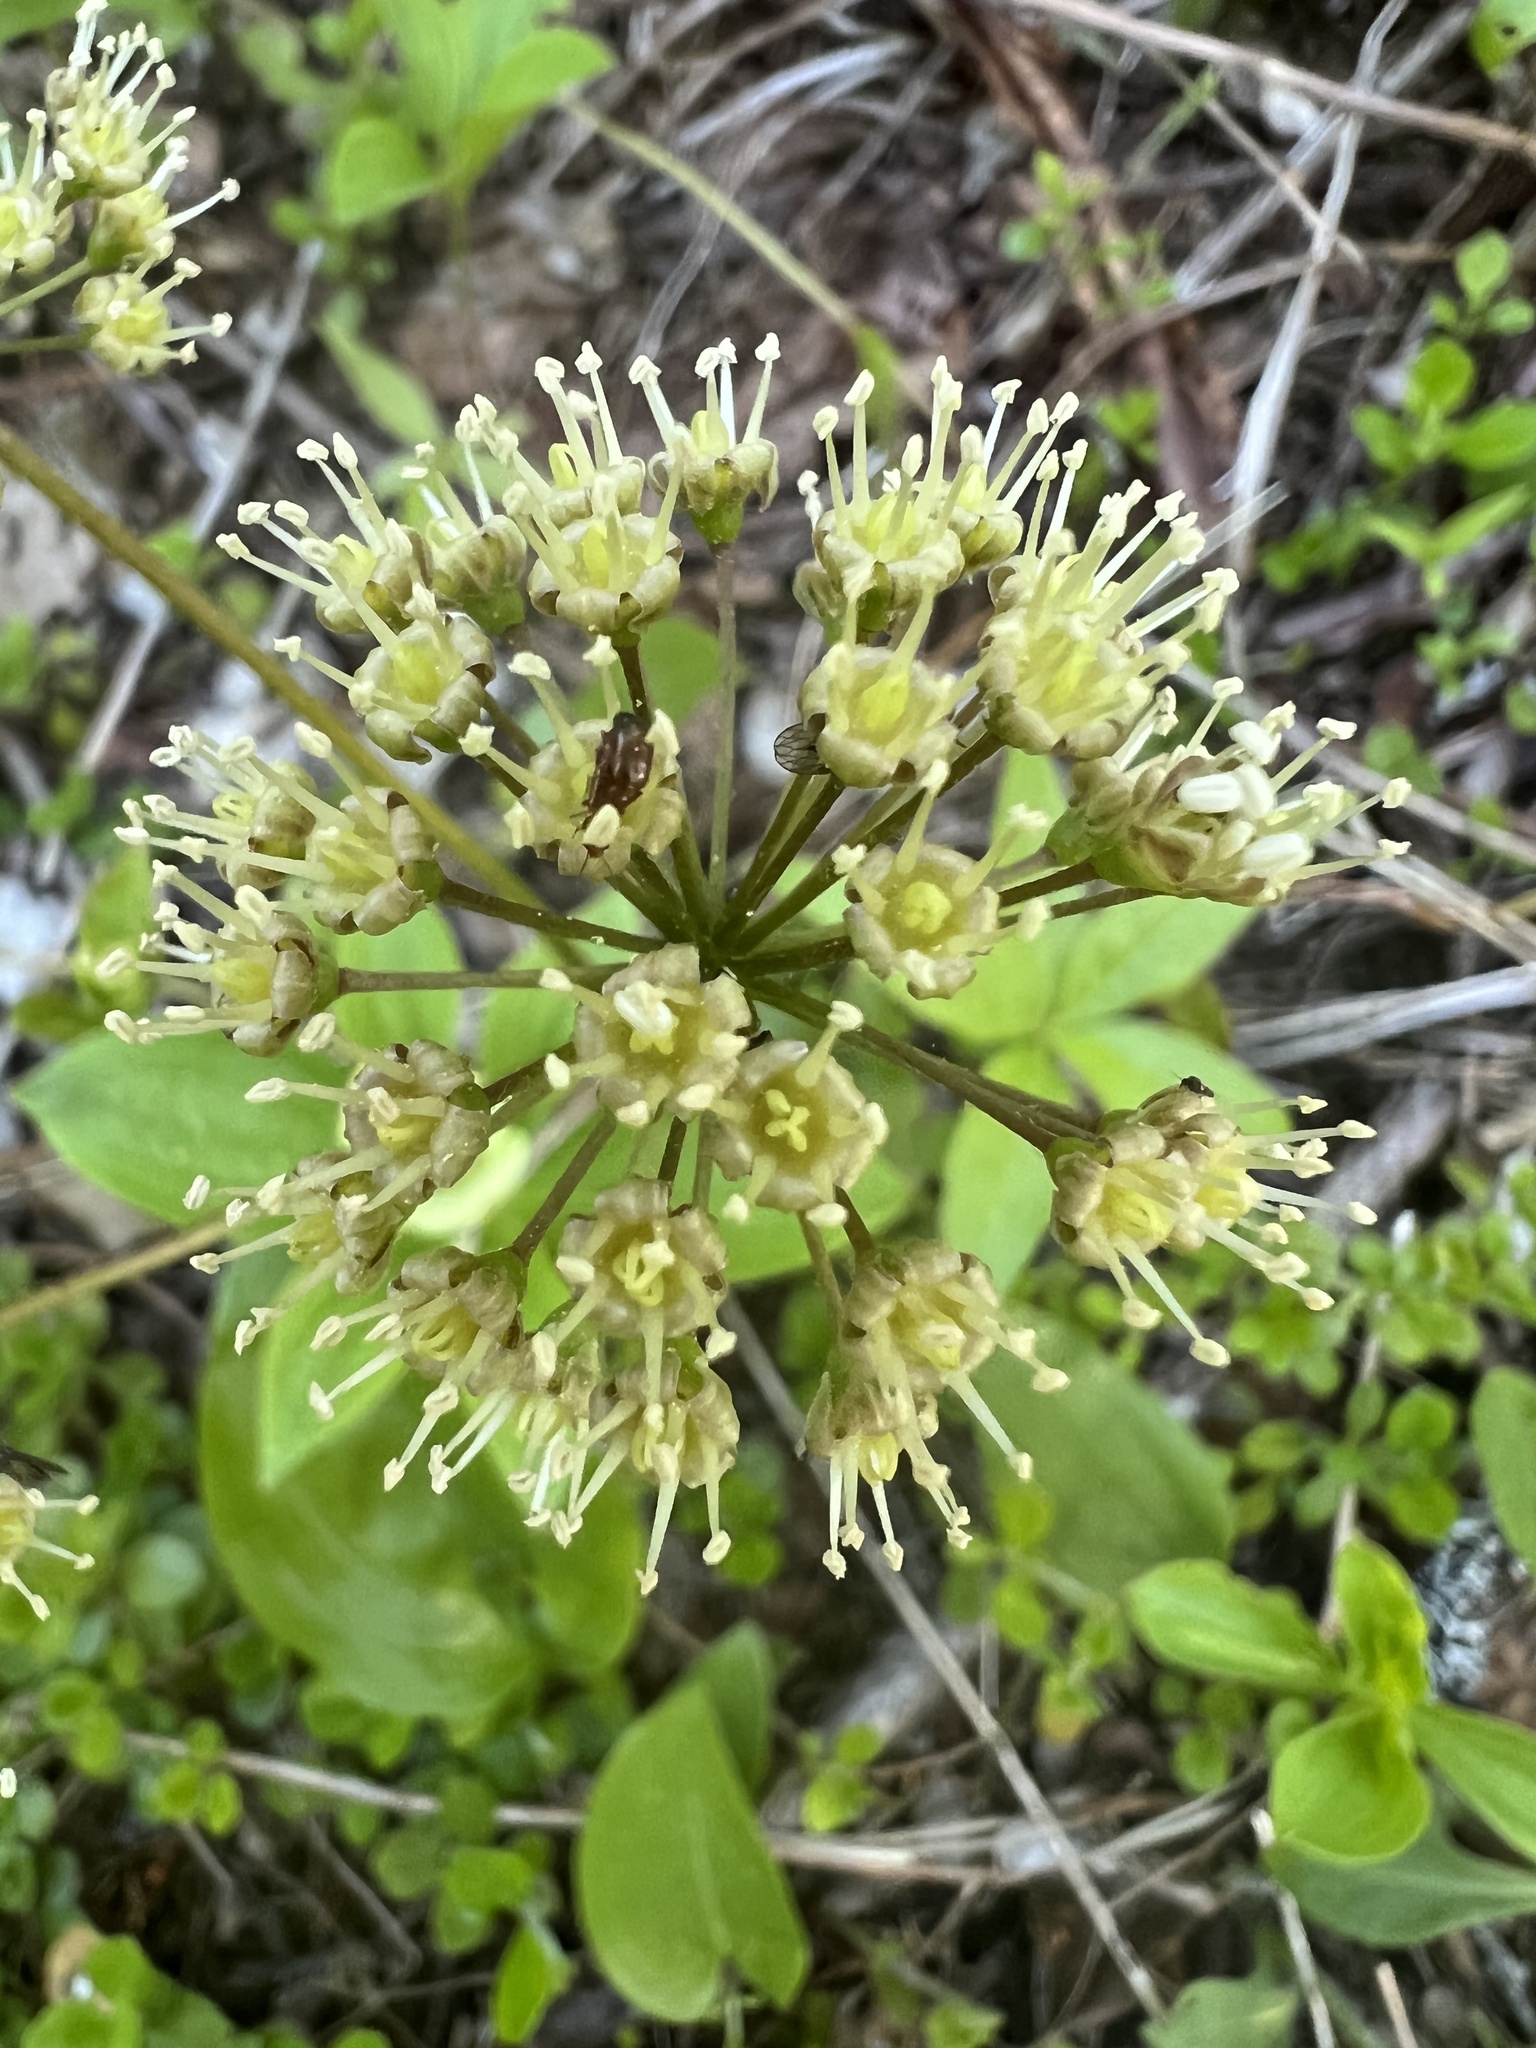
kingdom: Plantae
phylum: Tracheophyta
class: Magnoliopsida
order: Apiales
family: Araliaceae
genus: Aralia
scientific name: Aralia nudicaulis
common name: Wild sarsaparilla
